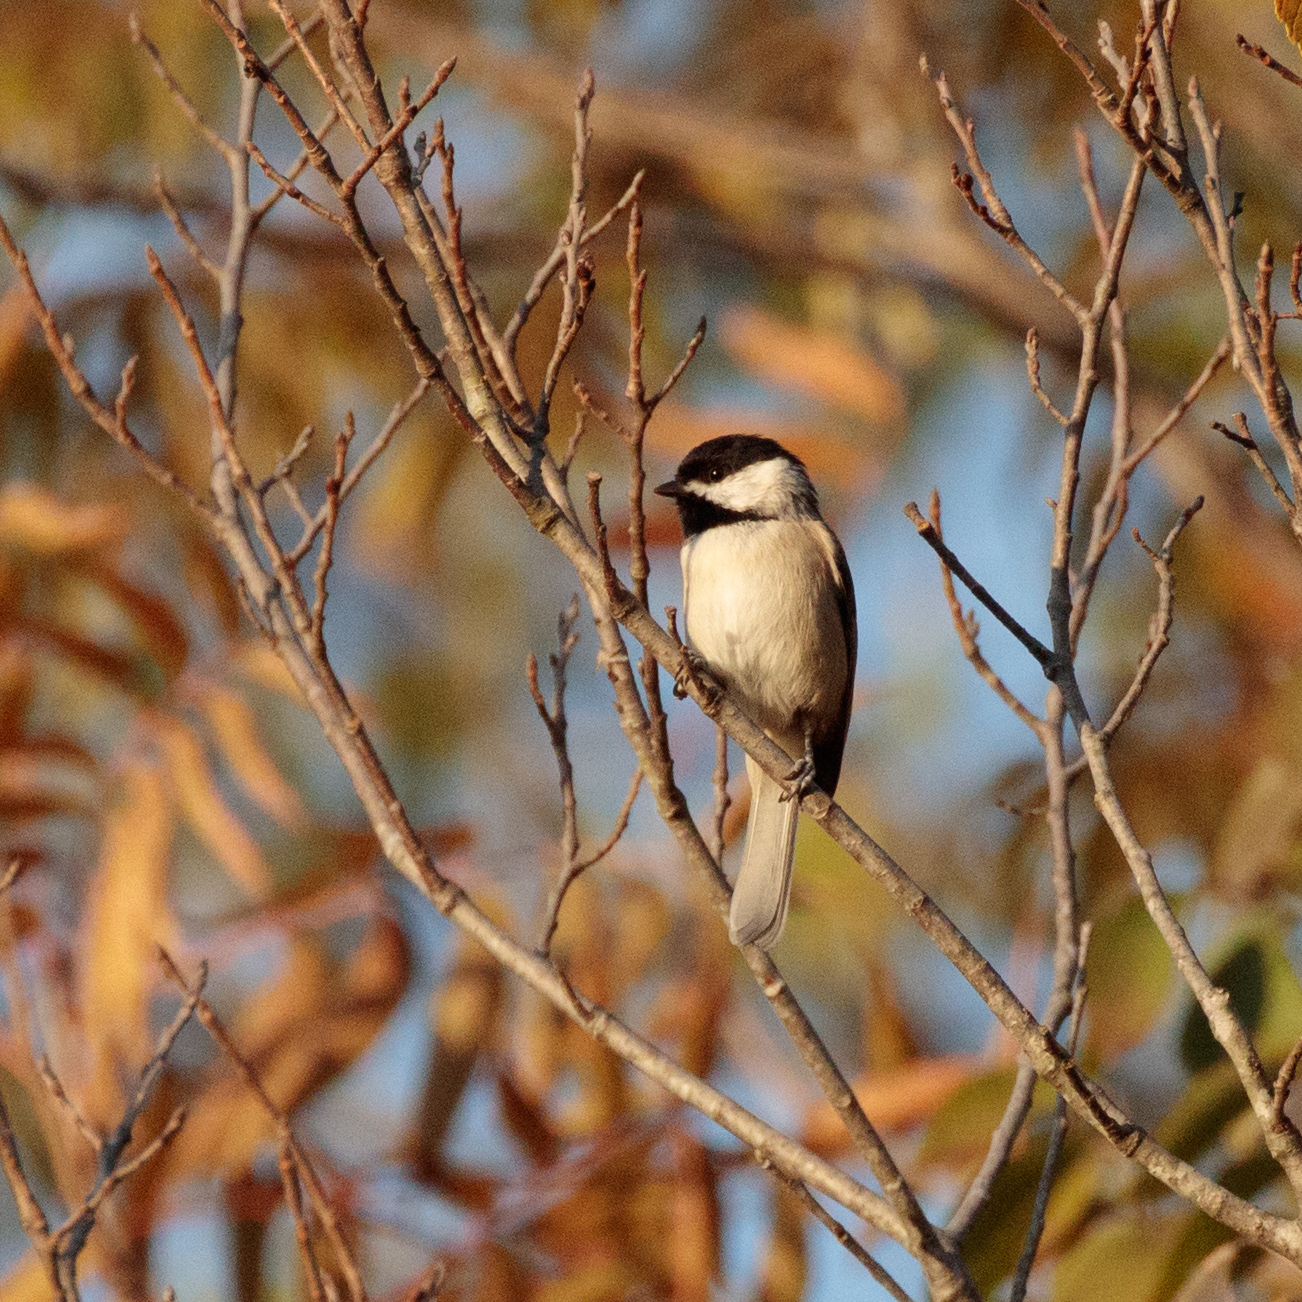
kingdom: Animalia
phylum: Chordata
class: Aves
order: Passeriformes
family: Paridae
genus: Poecile
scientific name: Poecile carolinensis
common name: Carolina chickadee
